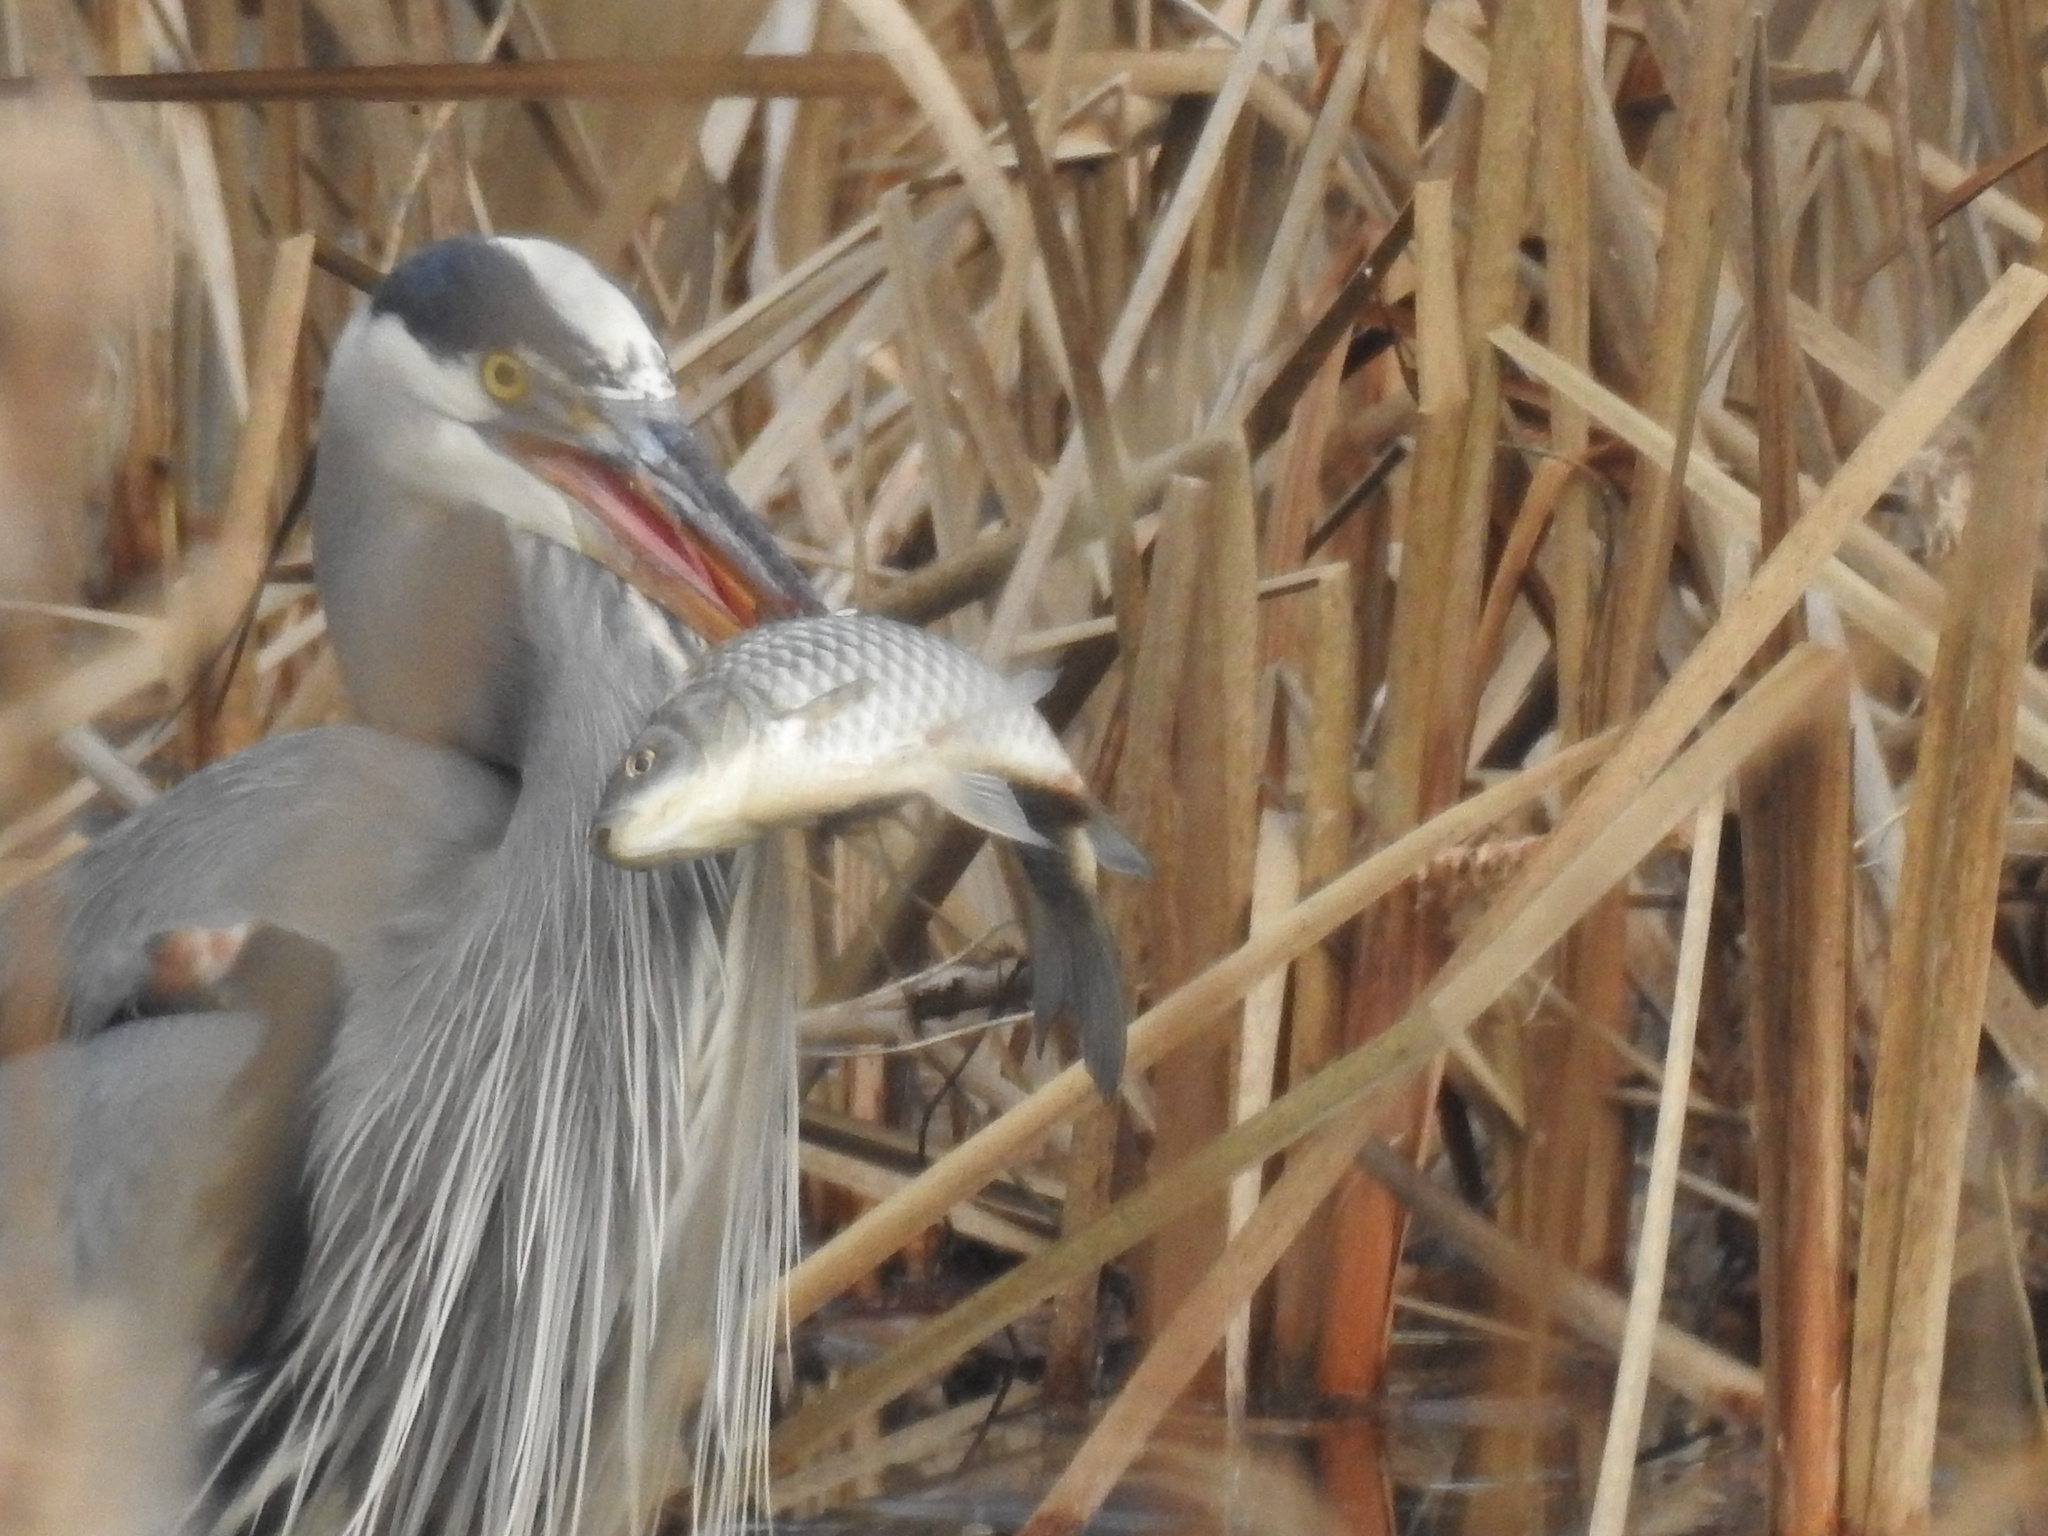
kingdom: Animalia
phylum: Chordata
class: Aves
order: Pelecaniformes
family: Ardeidae
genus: Ardea
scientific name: Ardea herodias
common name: Great blue heron
